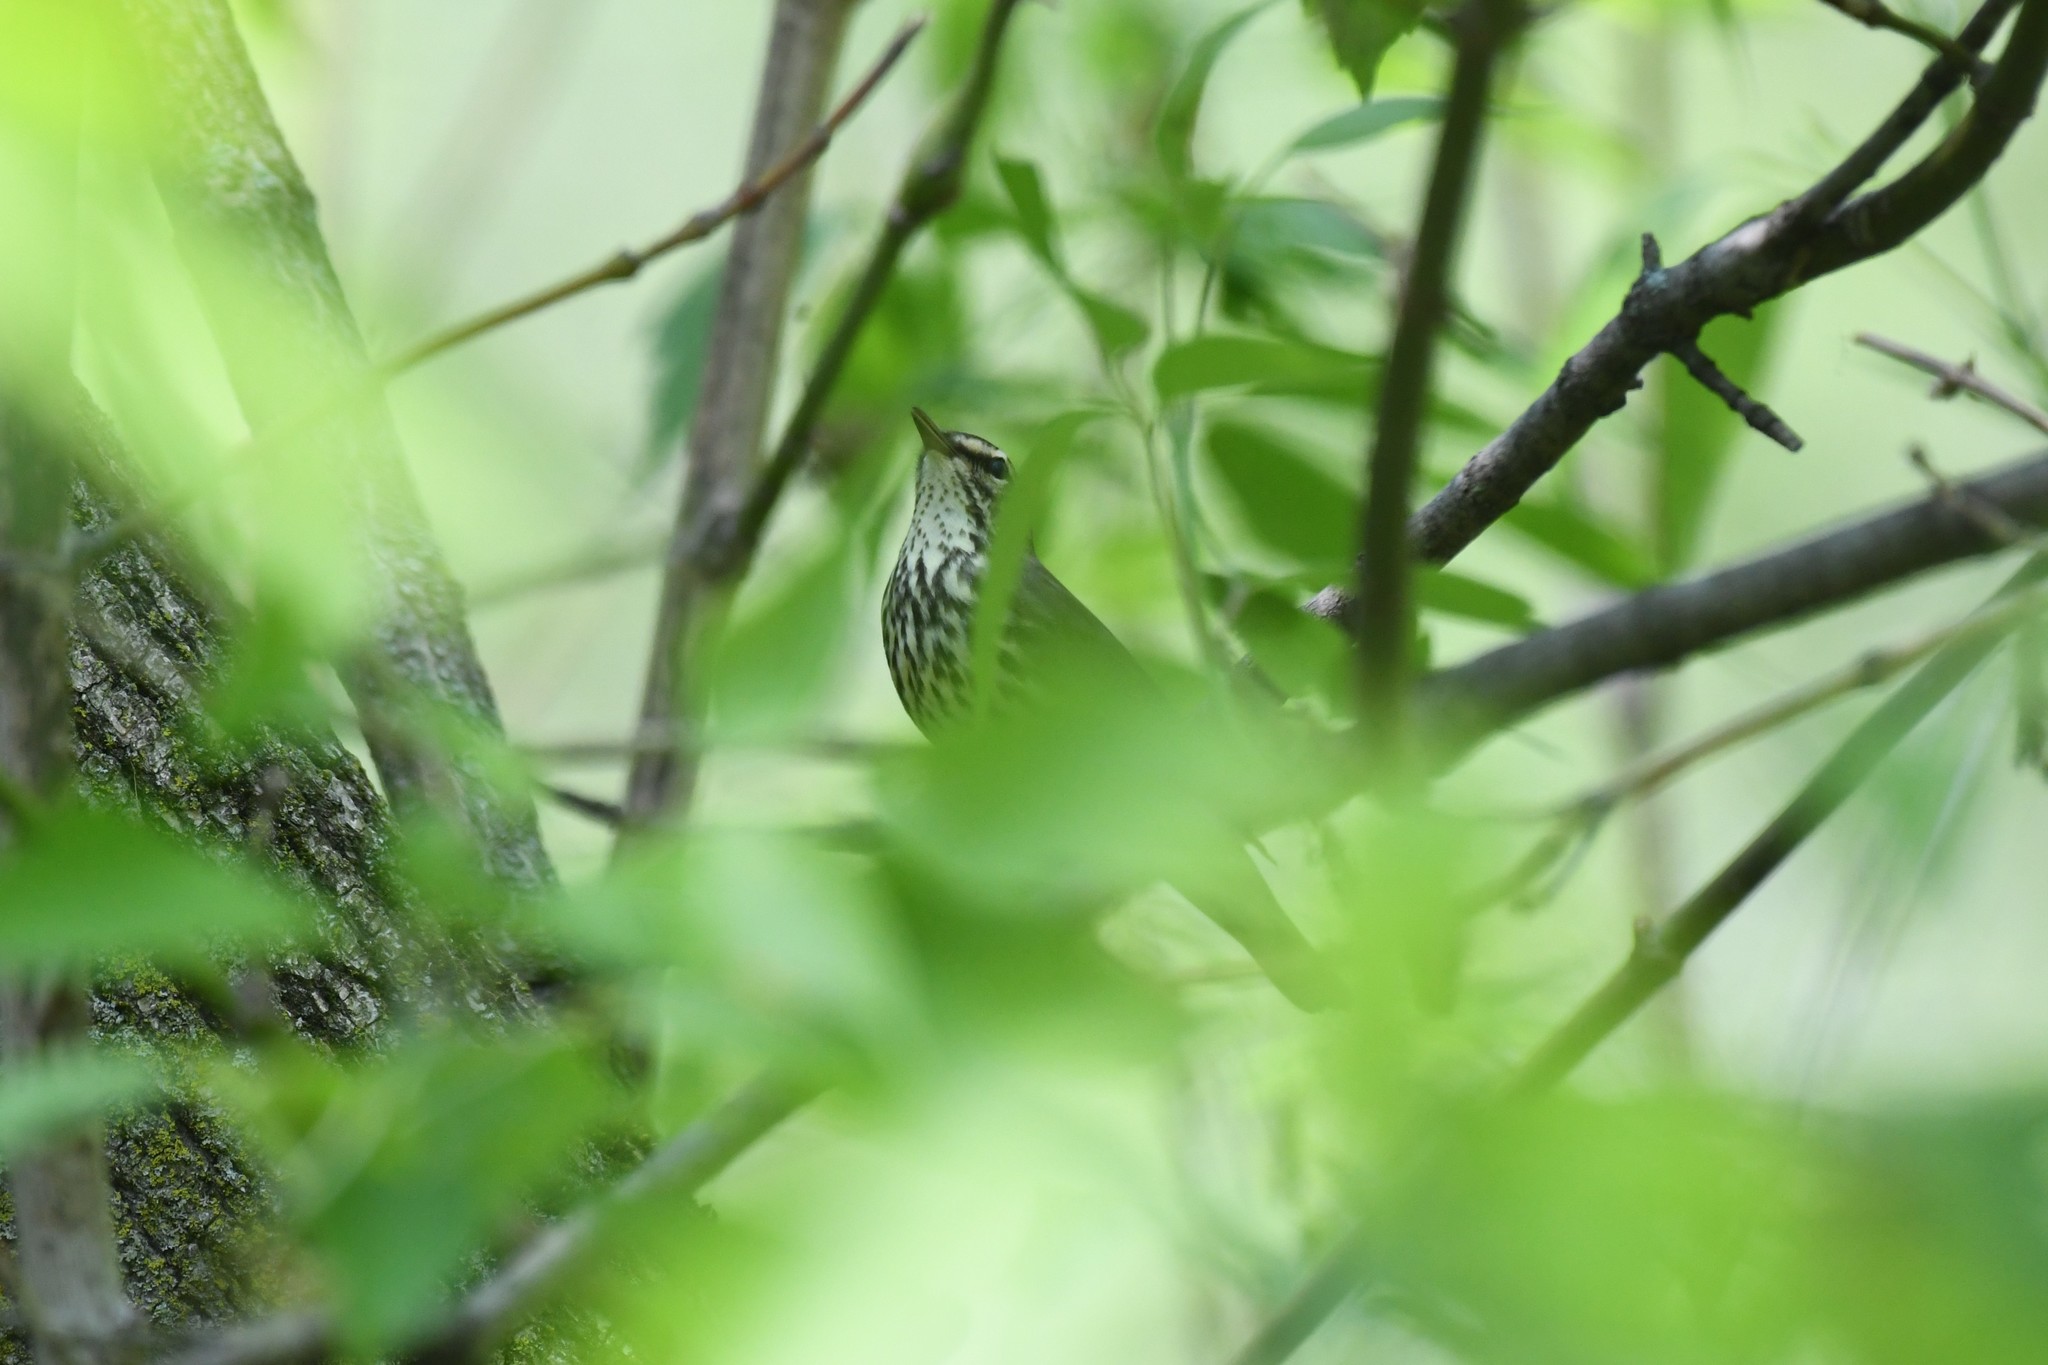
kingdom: Animalia
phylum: Chordata
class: Aves
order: Passeriformes
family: Parulidae
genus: Parkesia
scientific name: Parkesia noveboracensis
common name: Northern waterthrush
